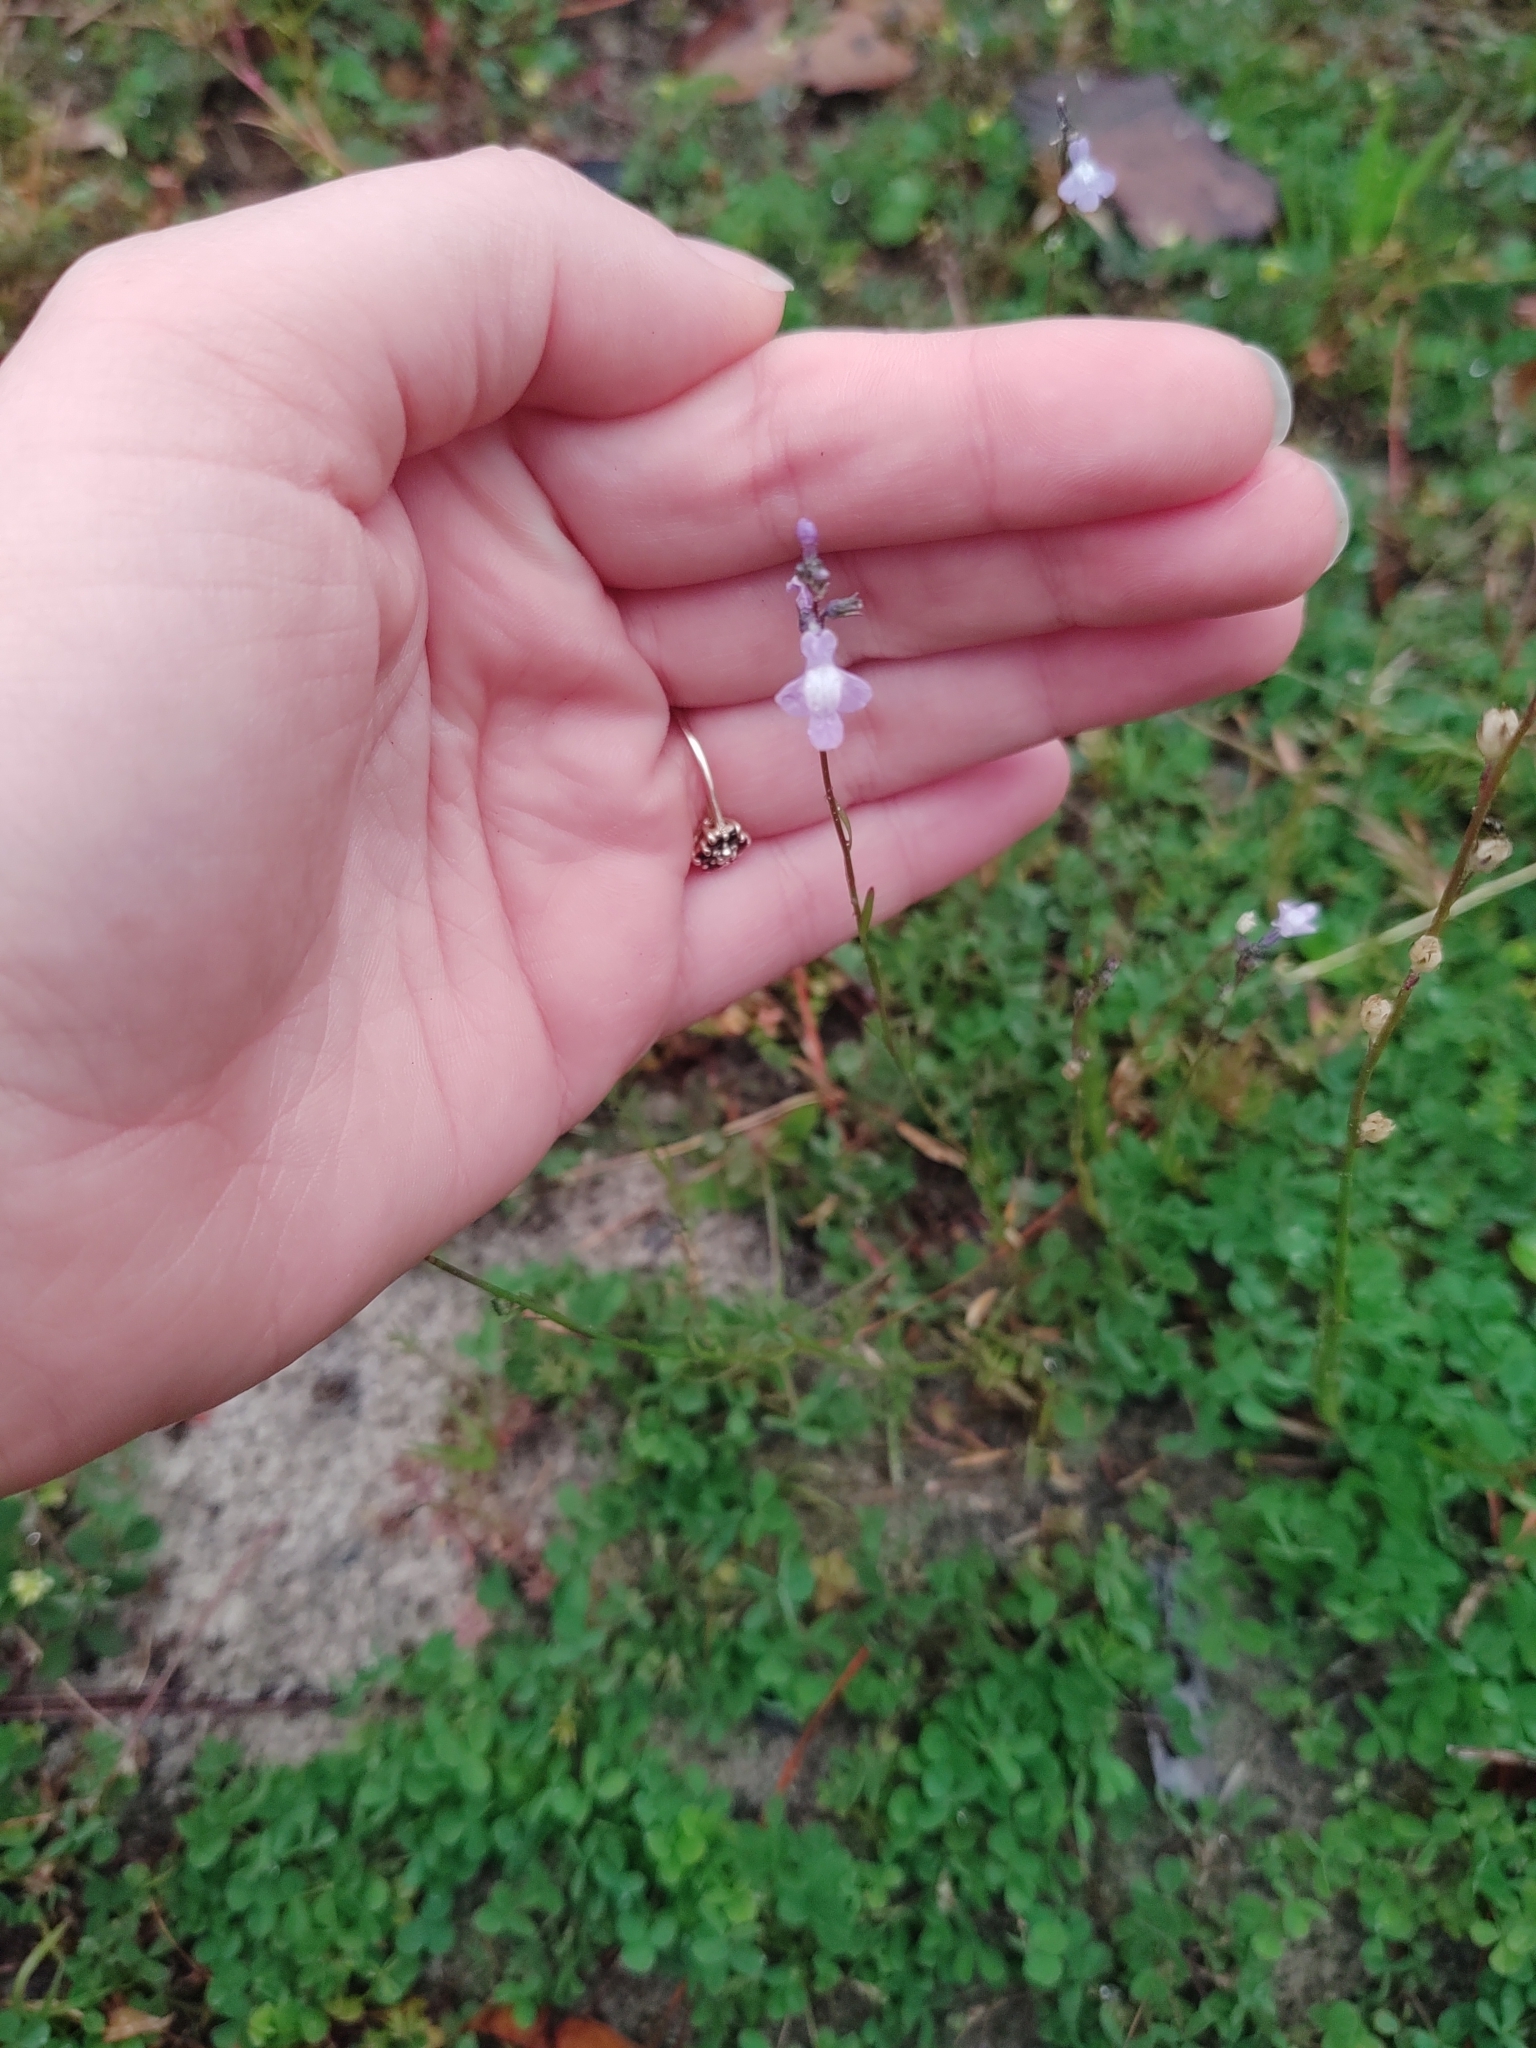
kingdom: Plantae
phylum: Tracheophyta
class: Magnoliopsida
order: Lamiales
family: Plantaginaceae
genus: Nuttallanthus
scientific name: Nuttallanthus canadensis
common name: Blue toadflax
